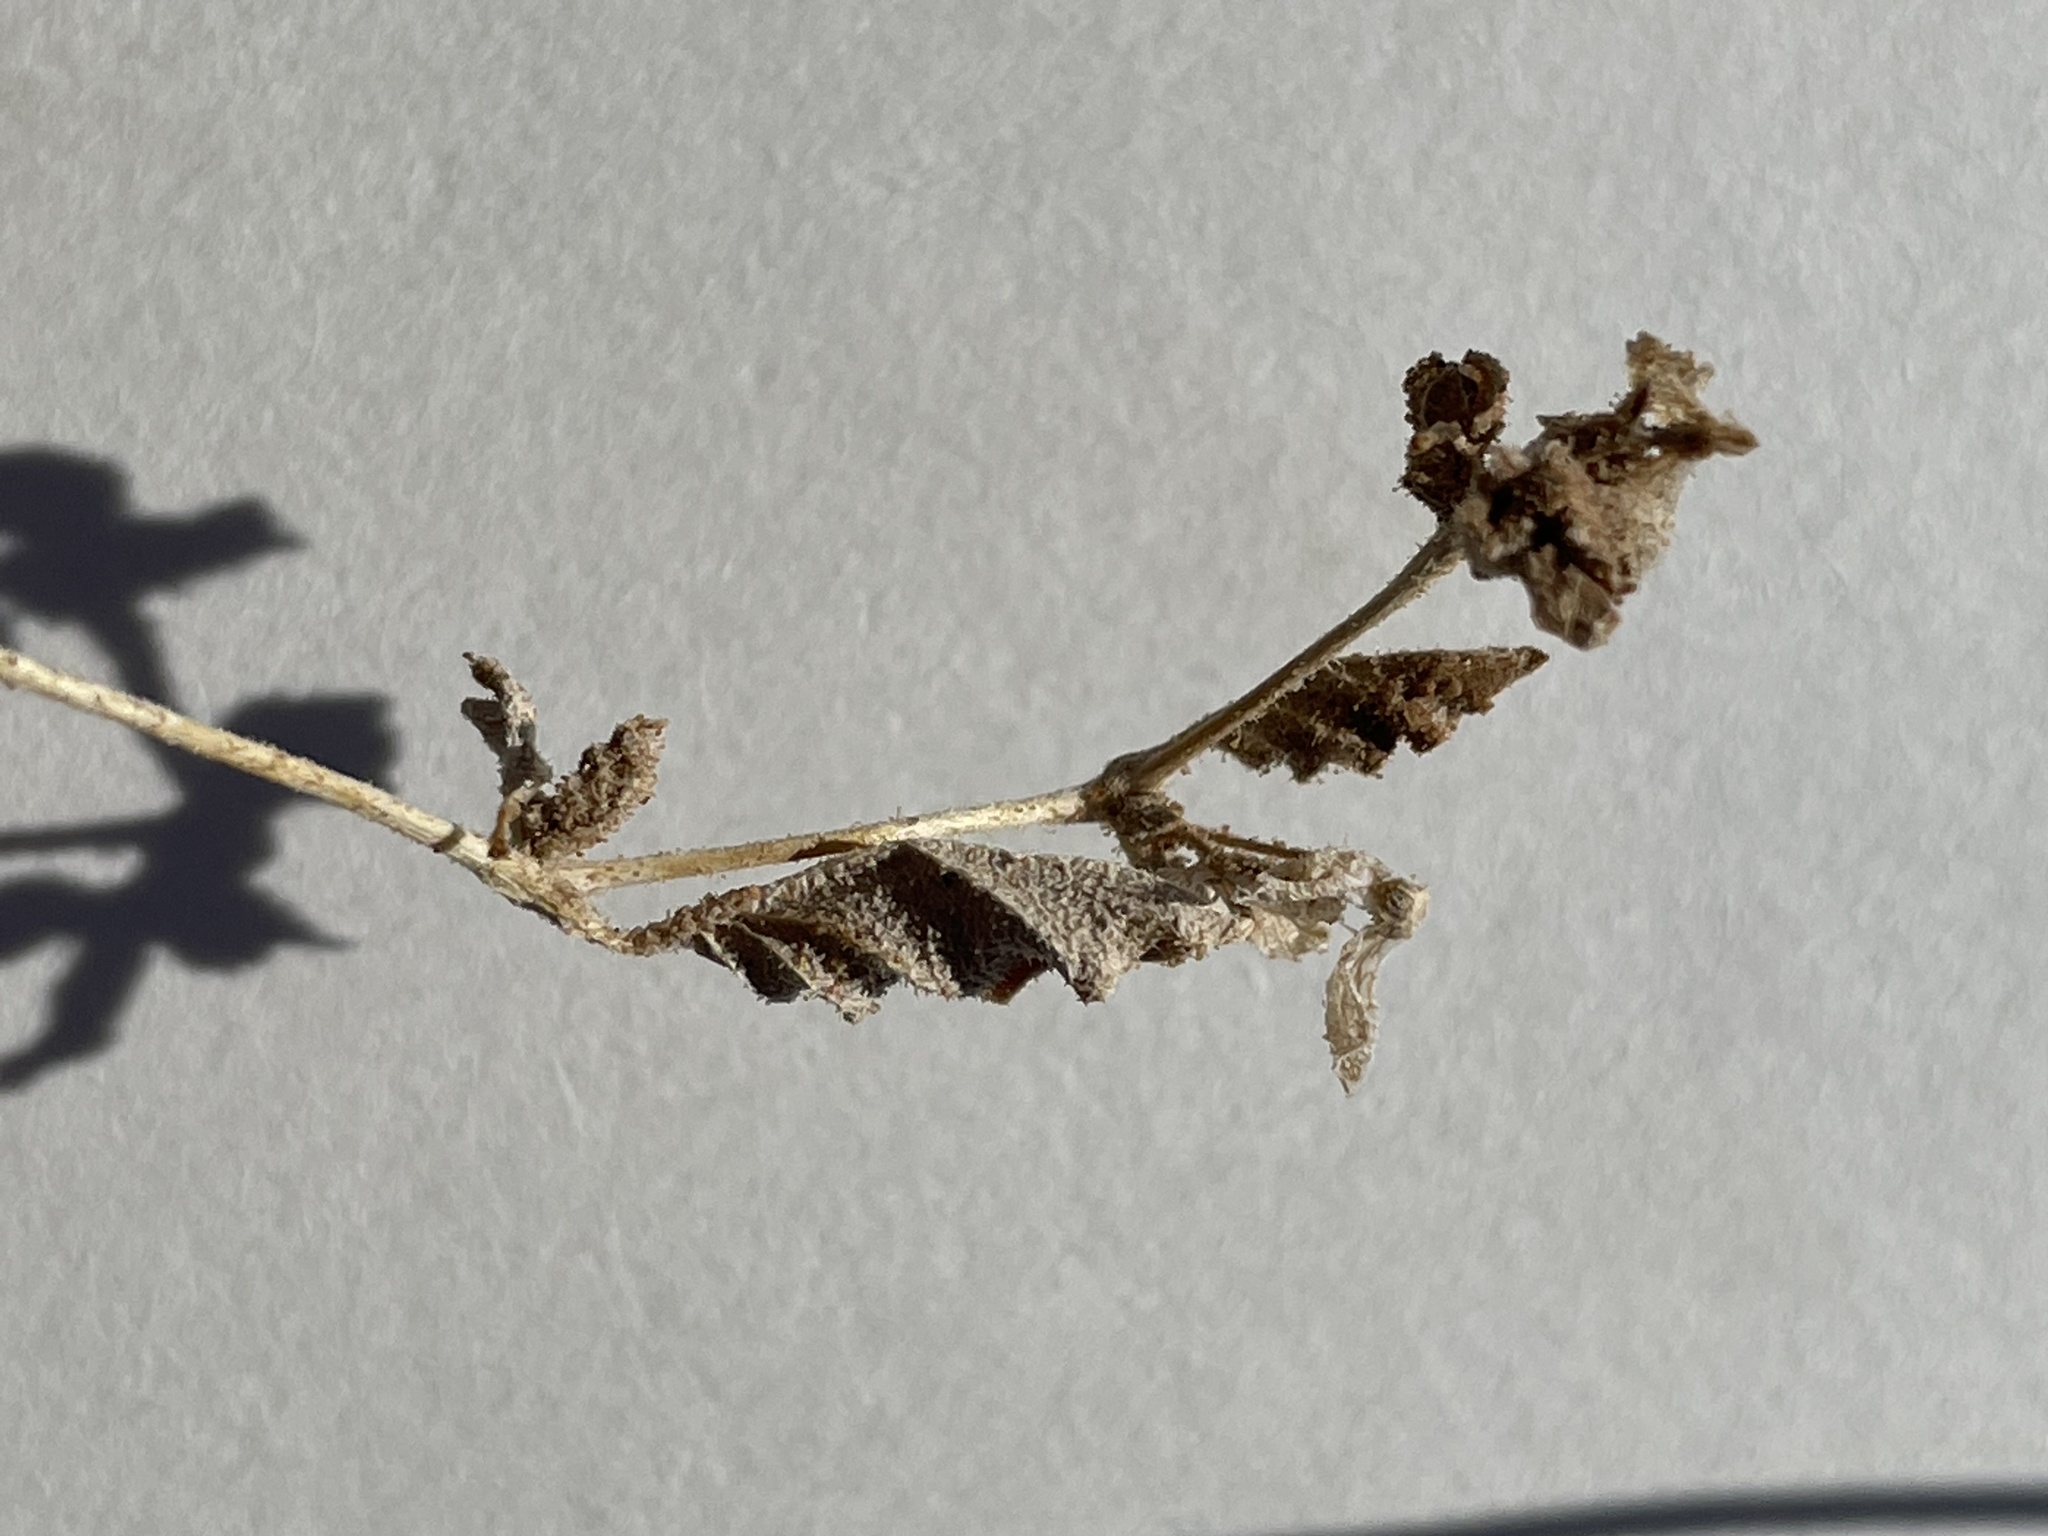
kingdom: Plantae
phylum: Tracheophyta
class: Magnoliopsida
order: Caryophyllales
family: Nyctaginaceae
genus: Allionia
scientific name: Allionia incarnata
